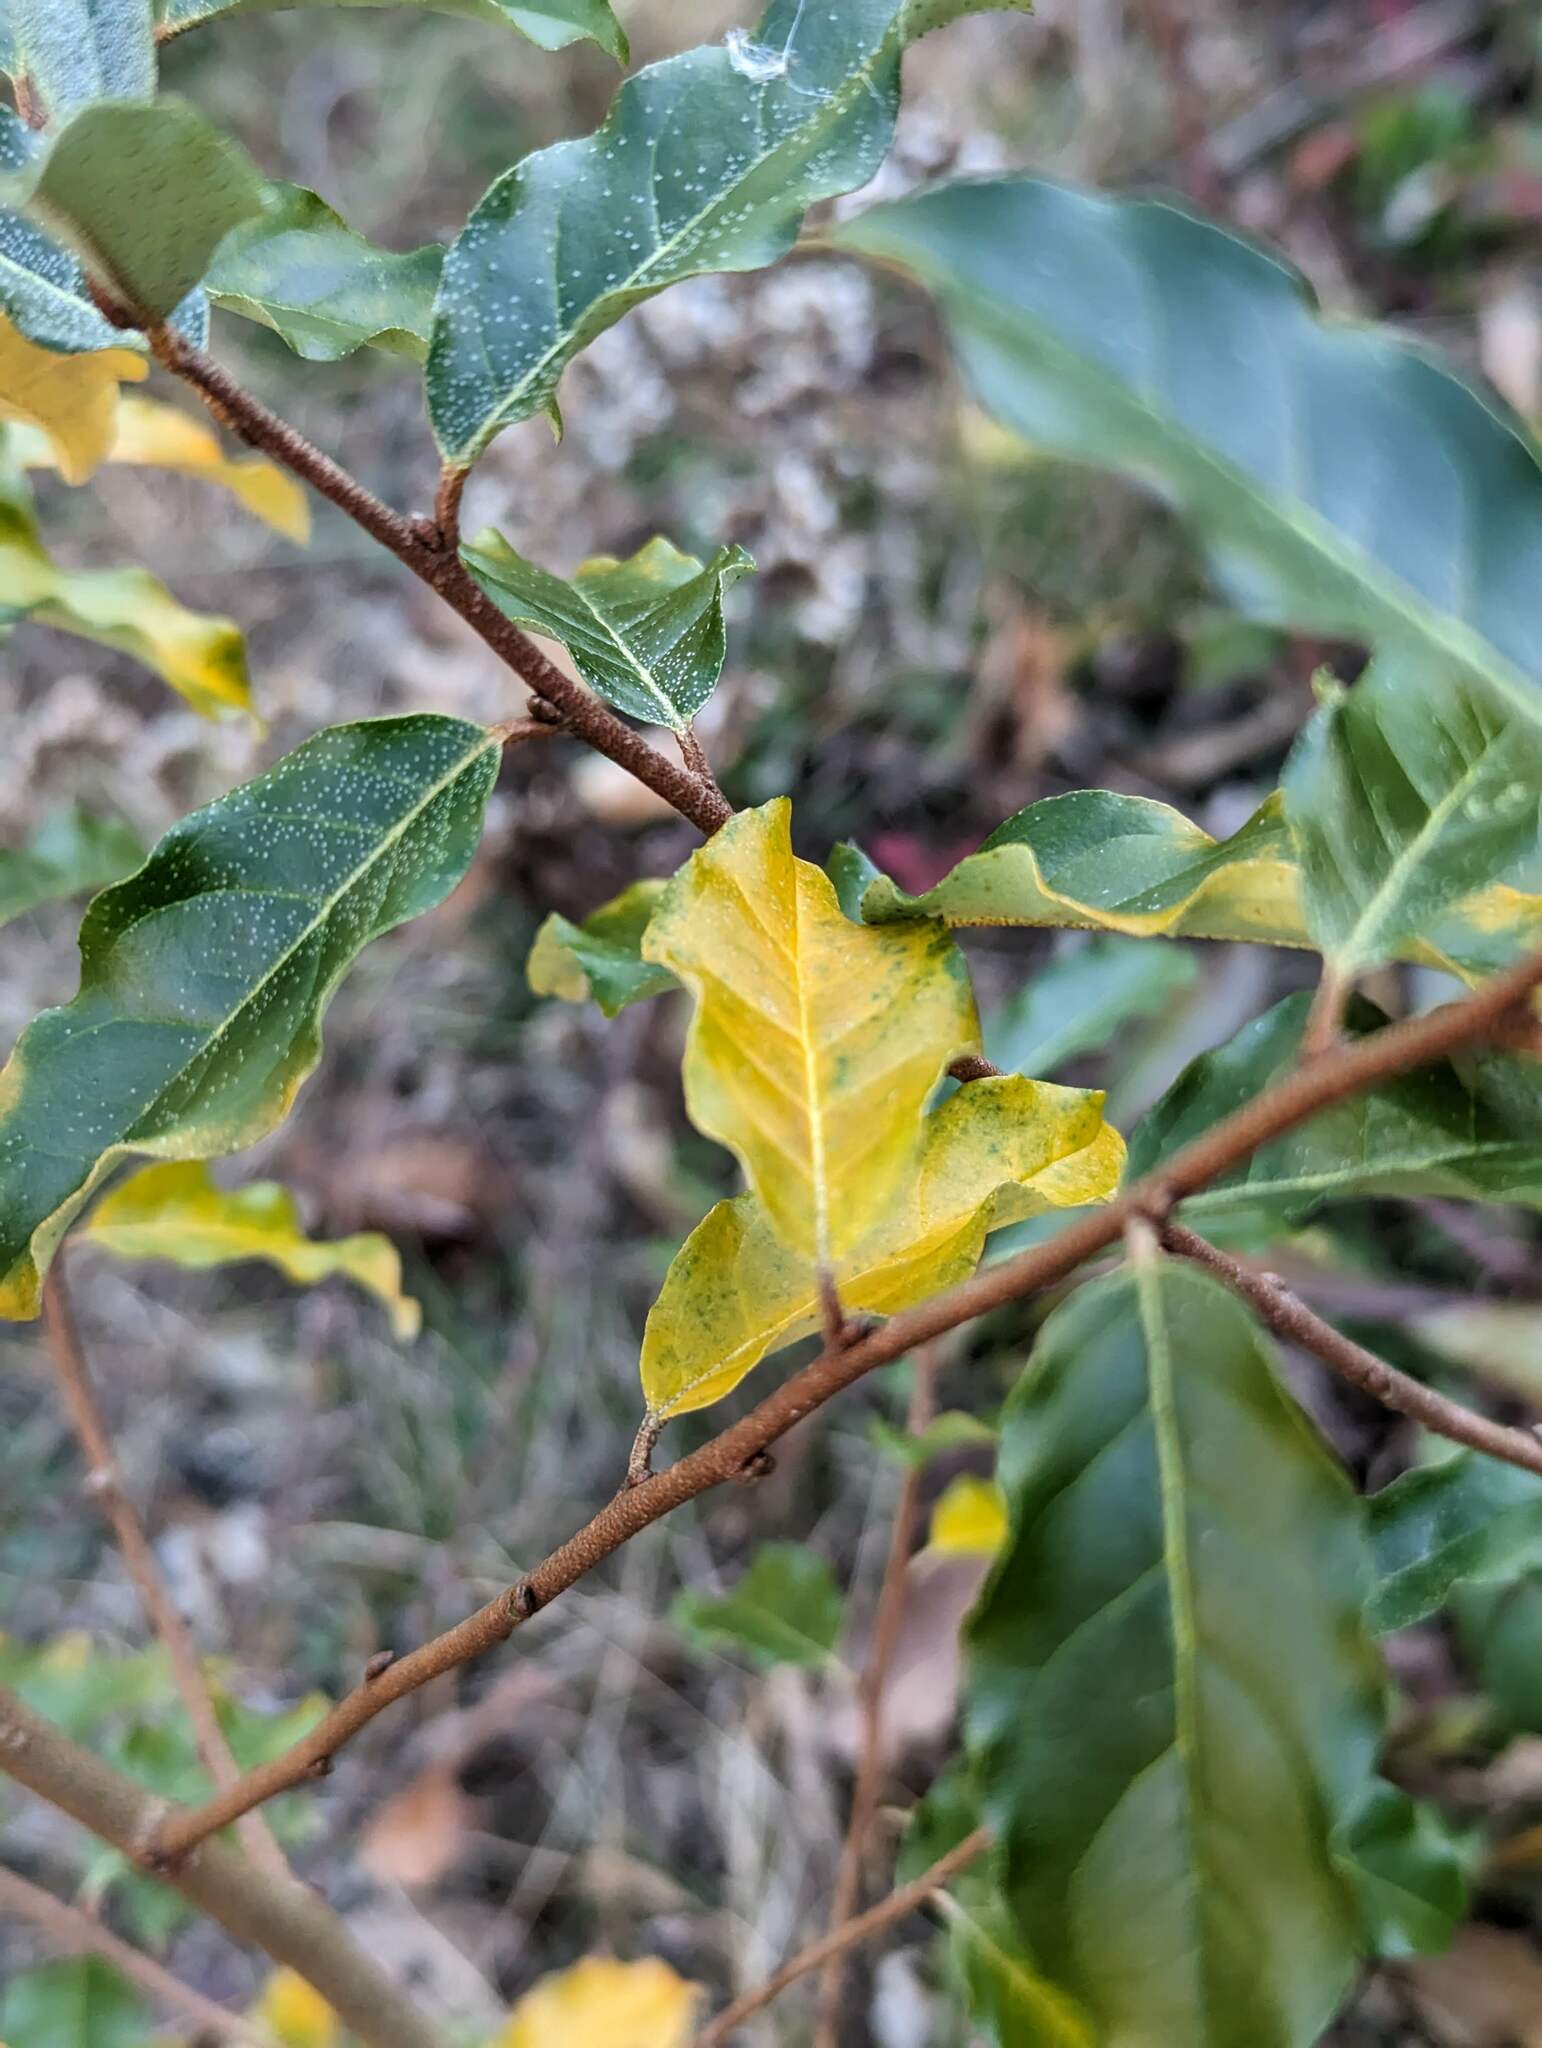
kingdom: Plantae
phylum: Tracheophyta
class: Magnoliopsida
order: Rosales
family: Elaeagnaceae
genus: Elaeagnus
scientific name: Elaeagnus umbellata
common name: Autumn olive
